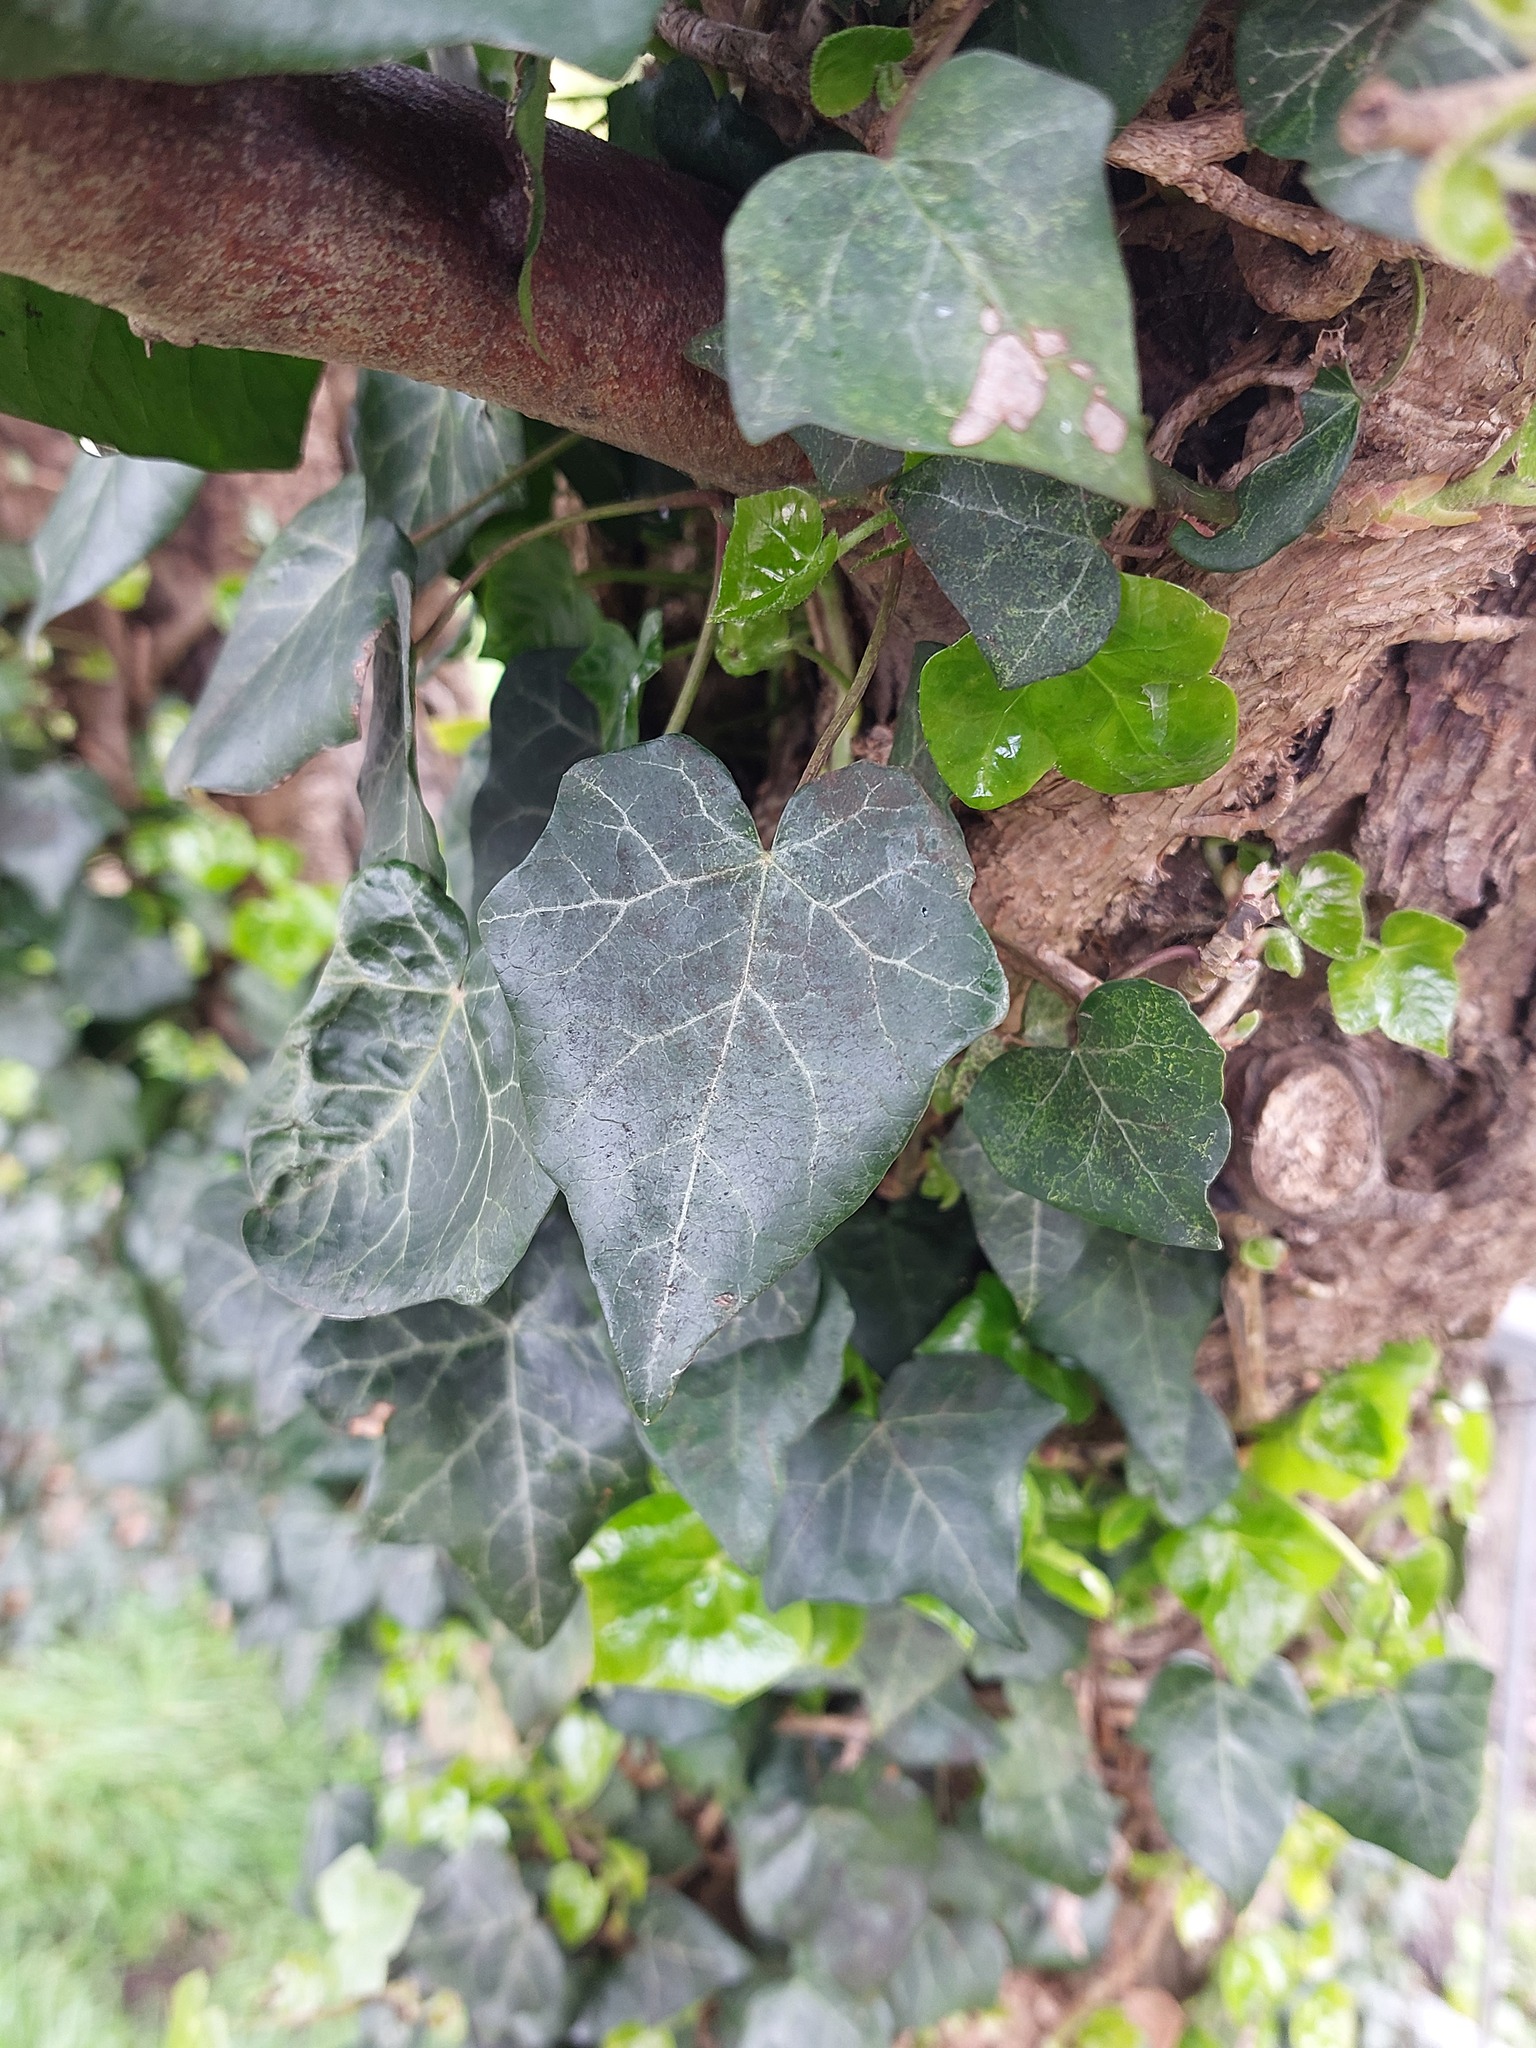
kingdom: Plantae
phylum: Tracheophyta
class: Magnoliopsida
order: Apiales
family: Araliaceae
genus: Hedera
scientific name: Hedera helix
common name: Ivy
